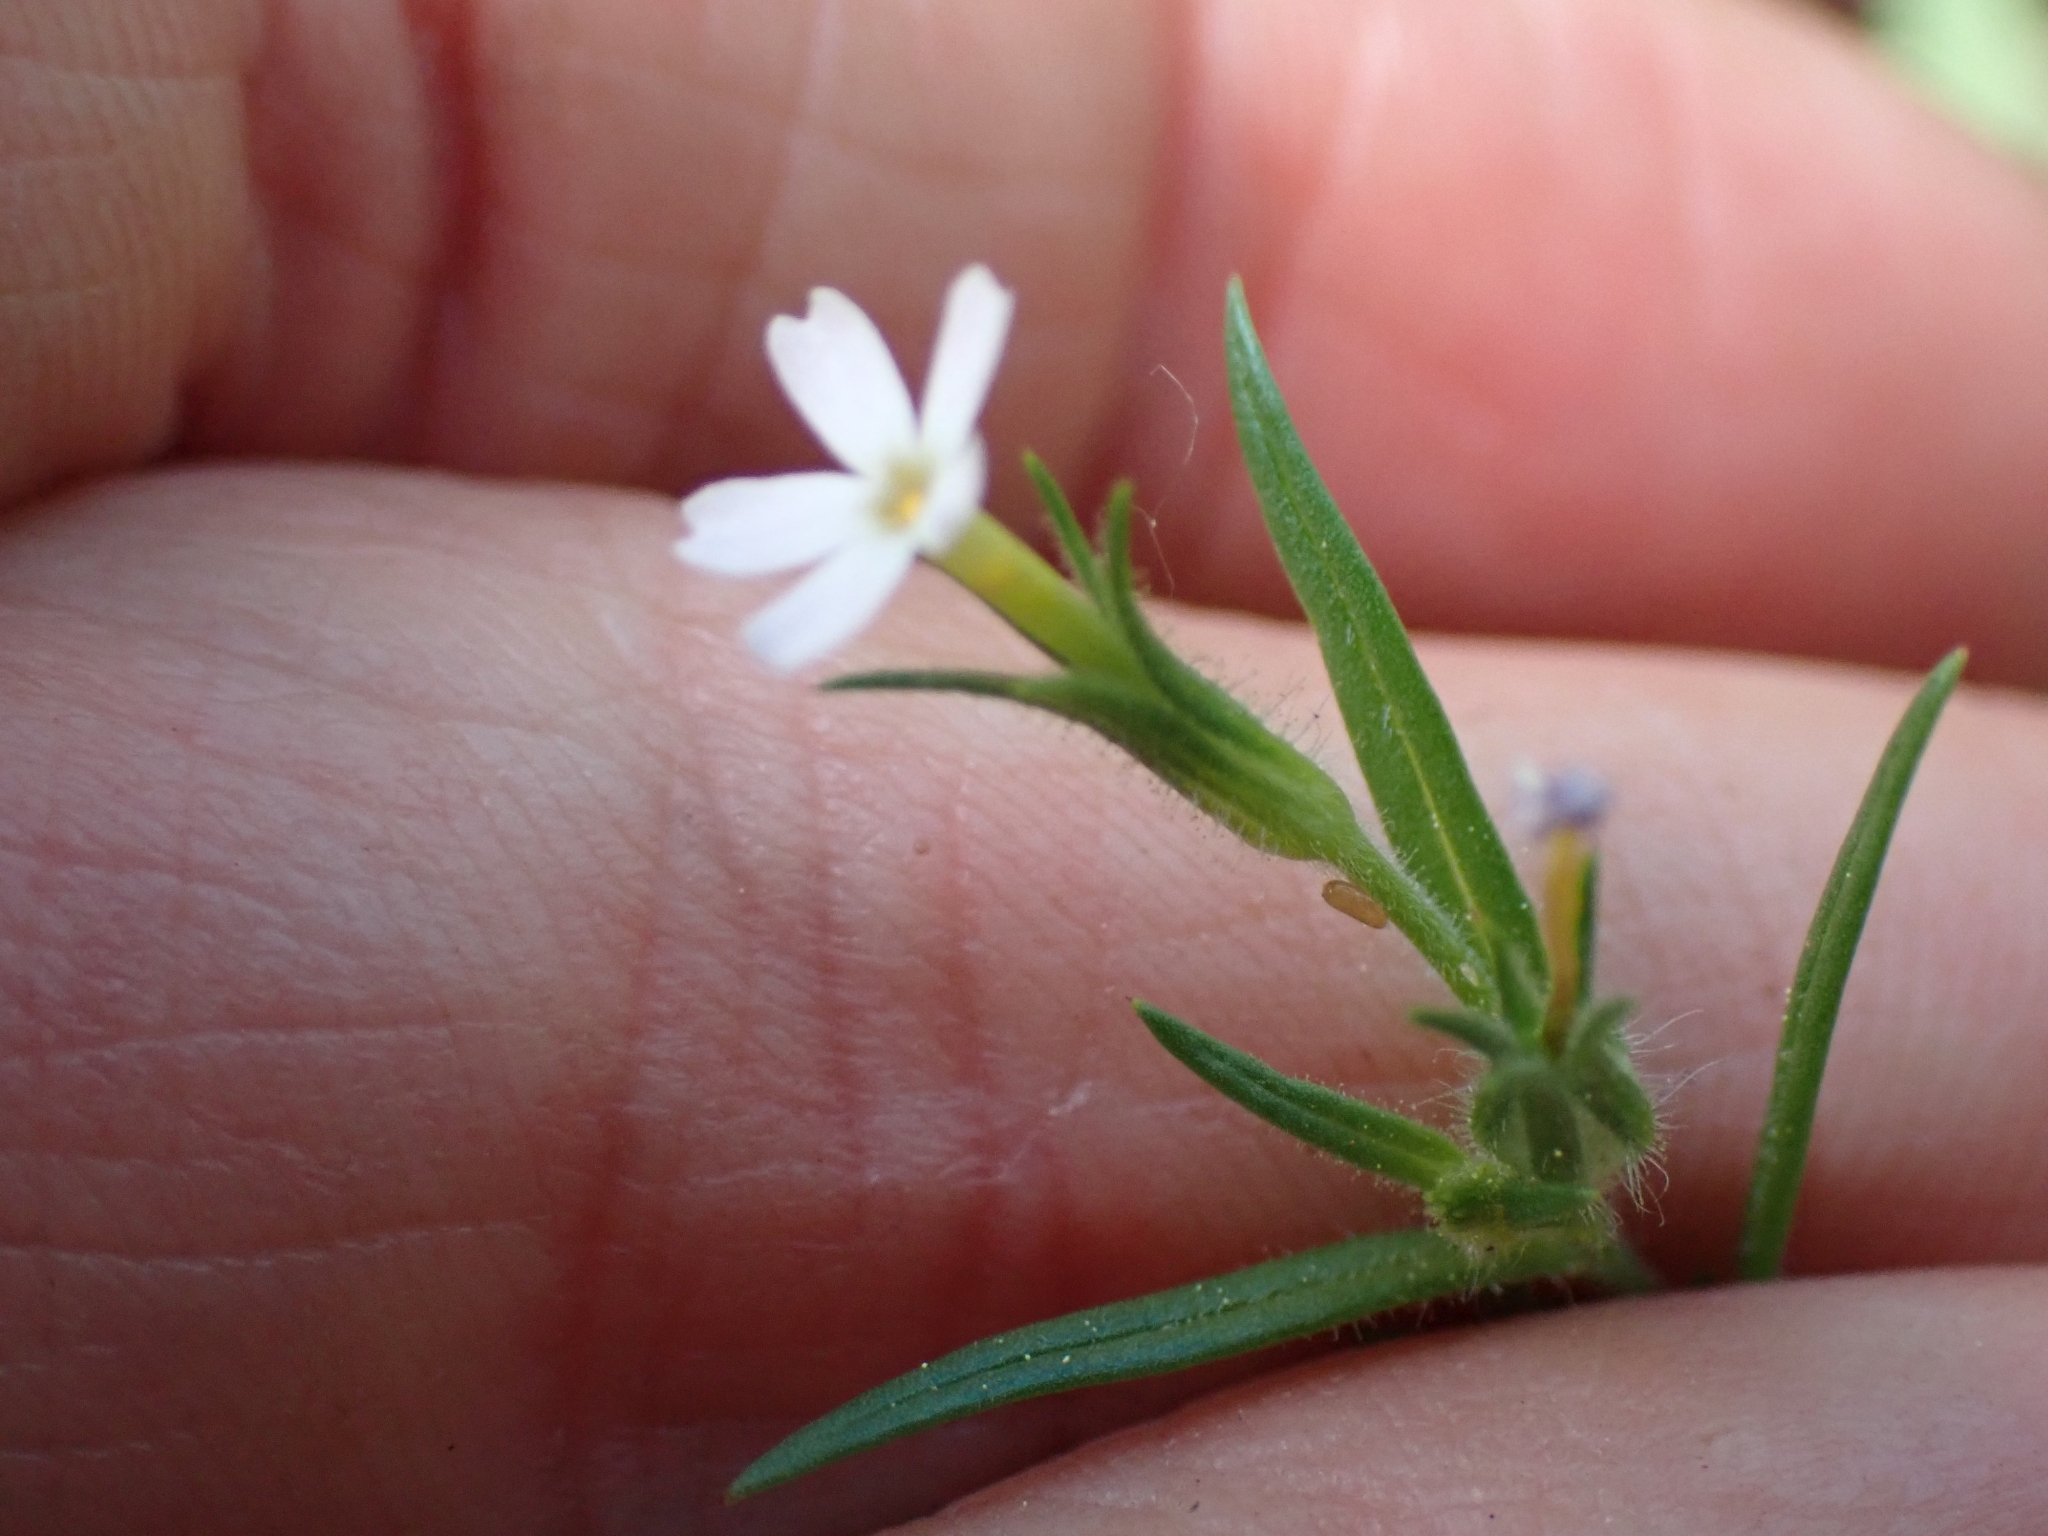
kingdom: Plantae
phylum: Tracheophyta
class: Magnoliopsida
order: Ericales
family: Polemoniaceae
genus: Phlox
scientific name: Phlox gracilis
